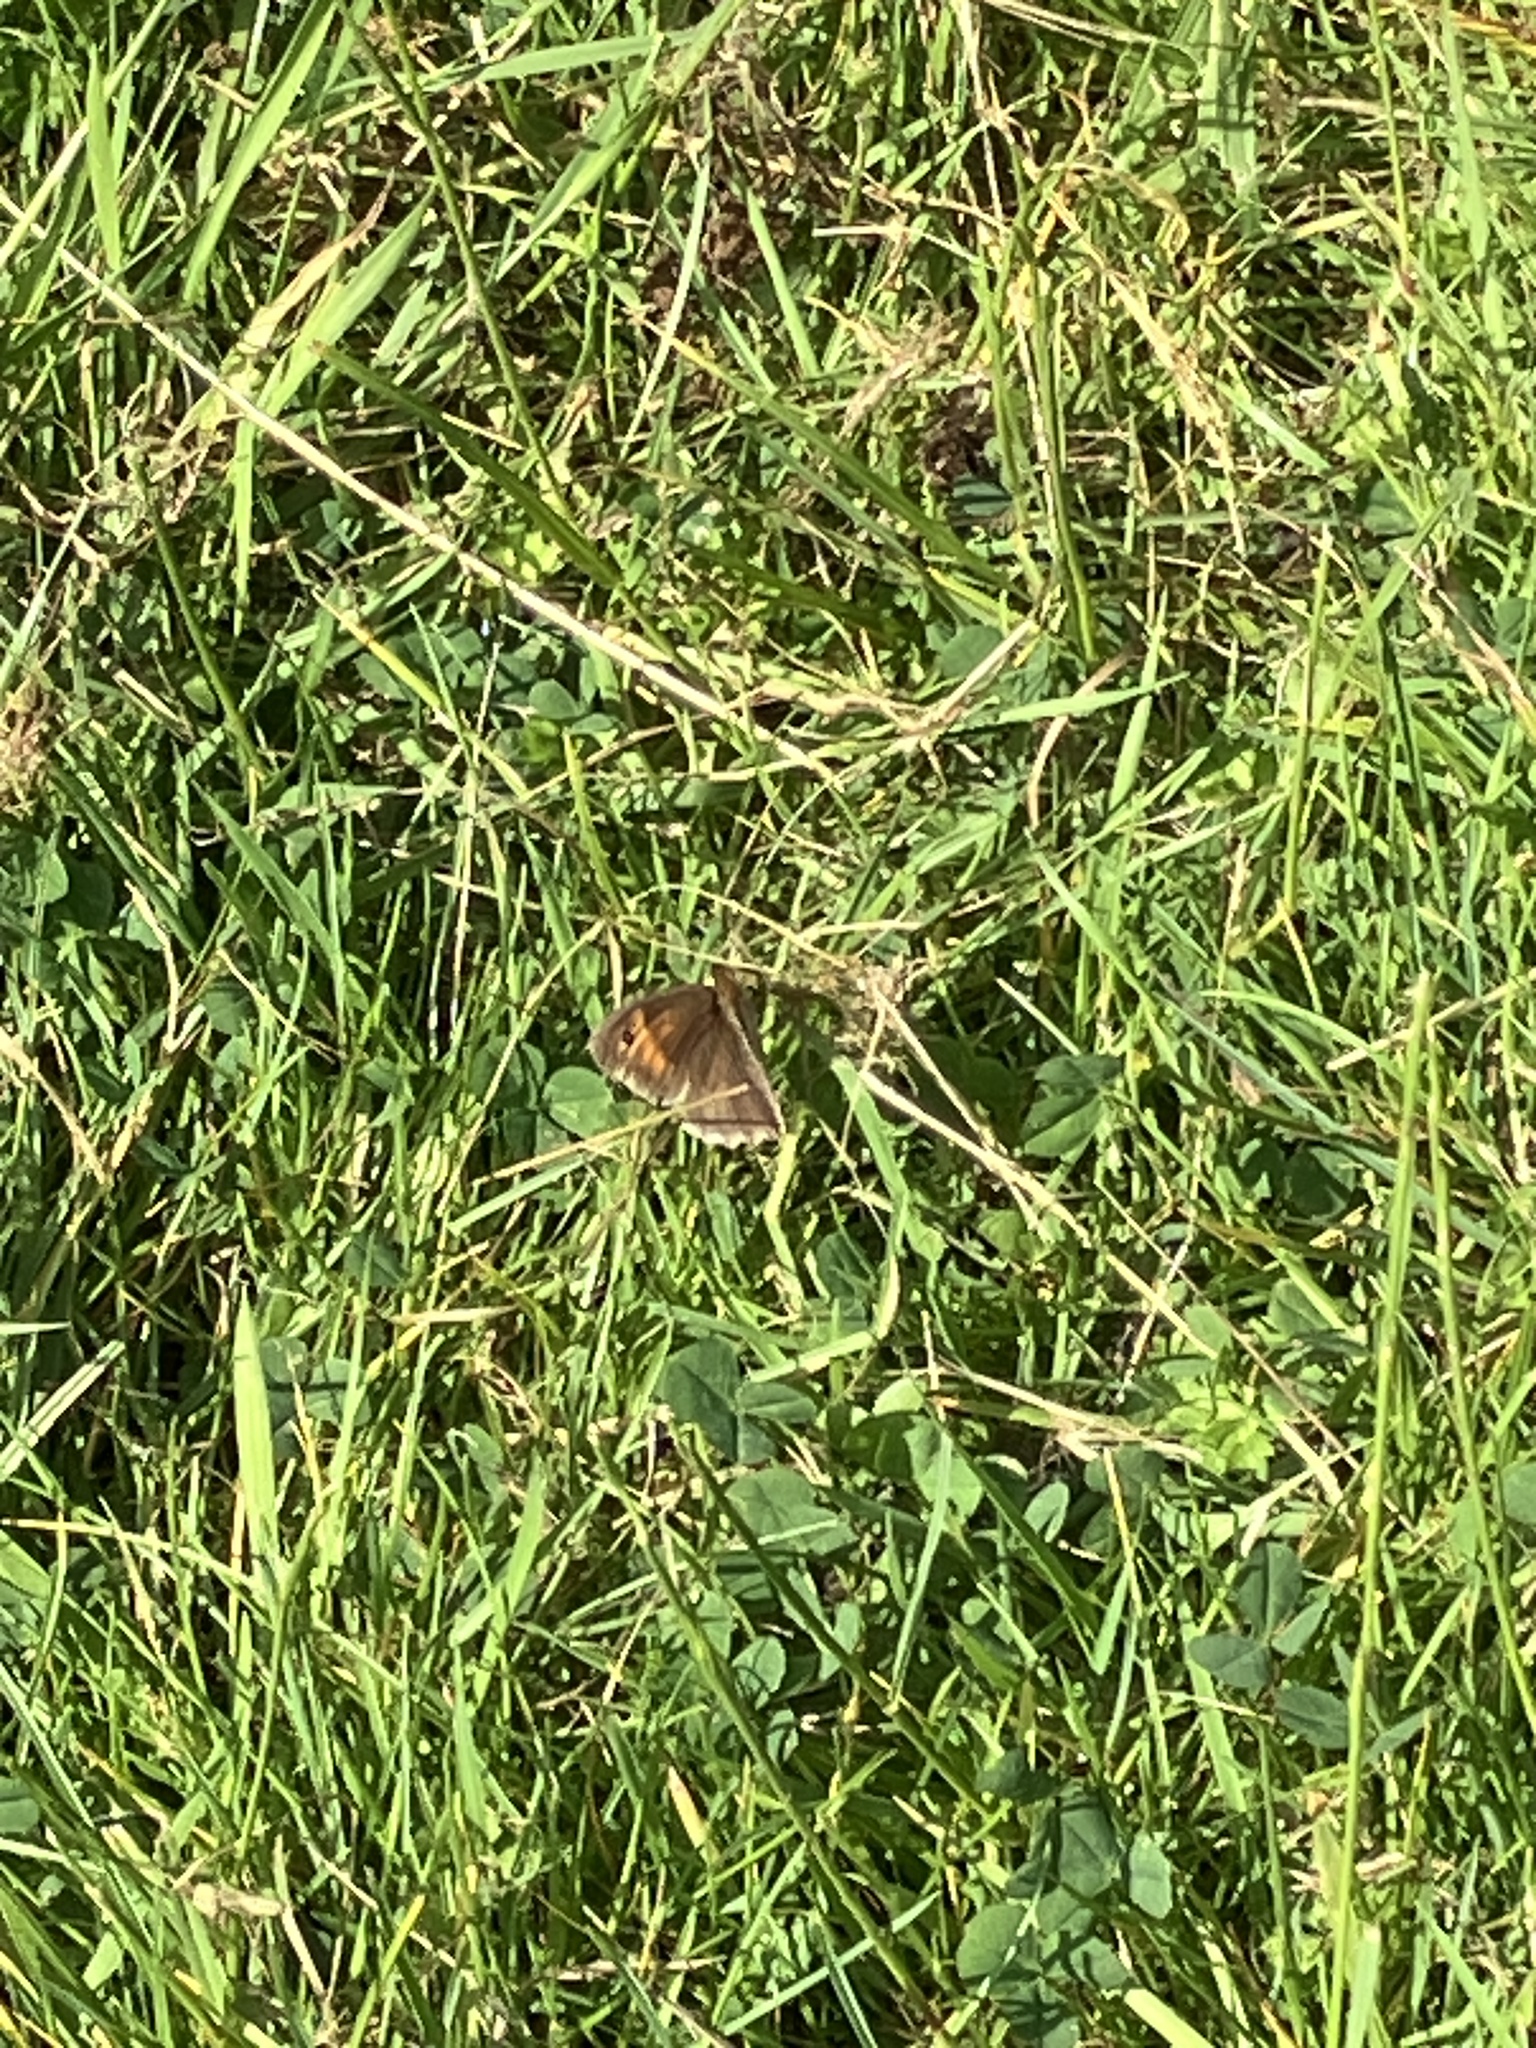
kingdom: Animalia
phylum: Arthropoda
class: Insecta
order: Lepidoptera
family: Nymphalidae
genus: Maniola
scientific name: Maniola jurtina
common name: Meadow brown
